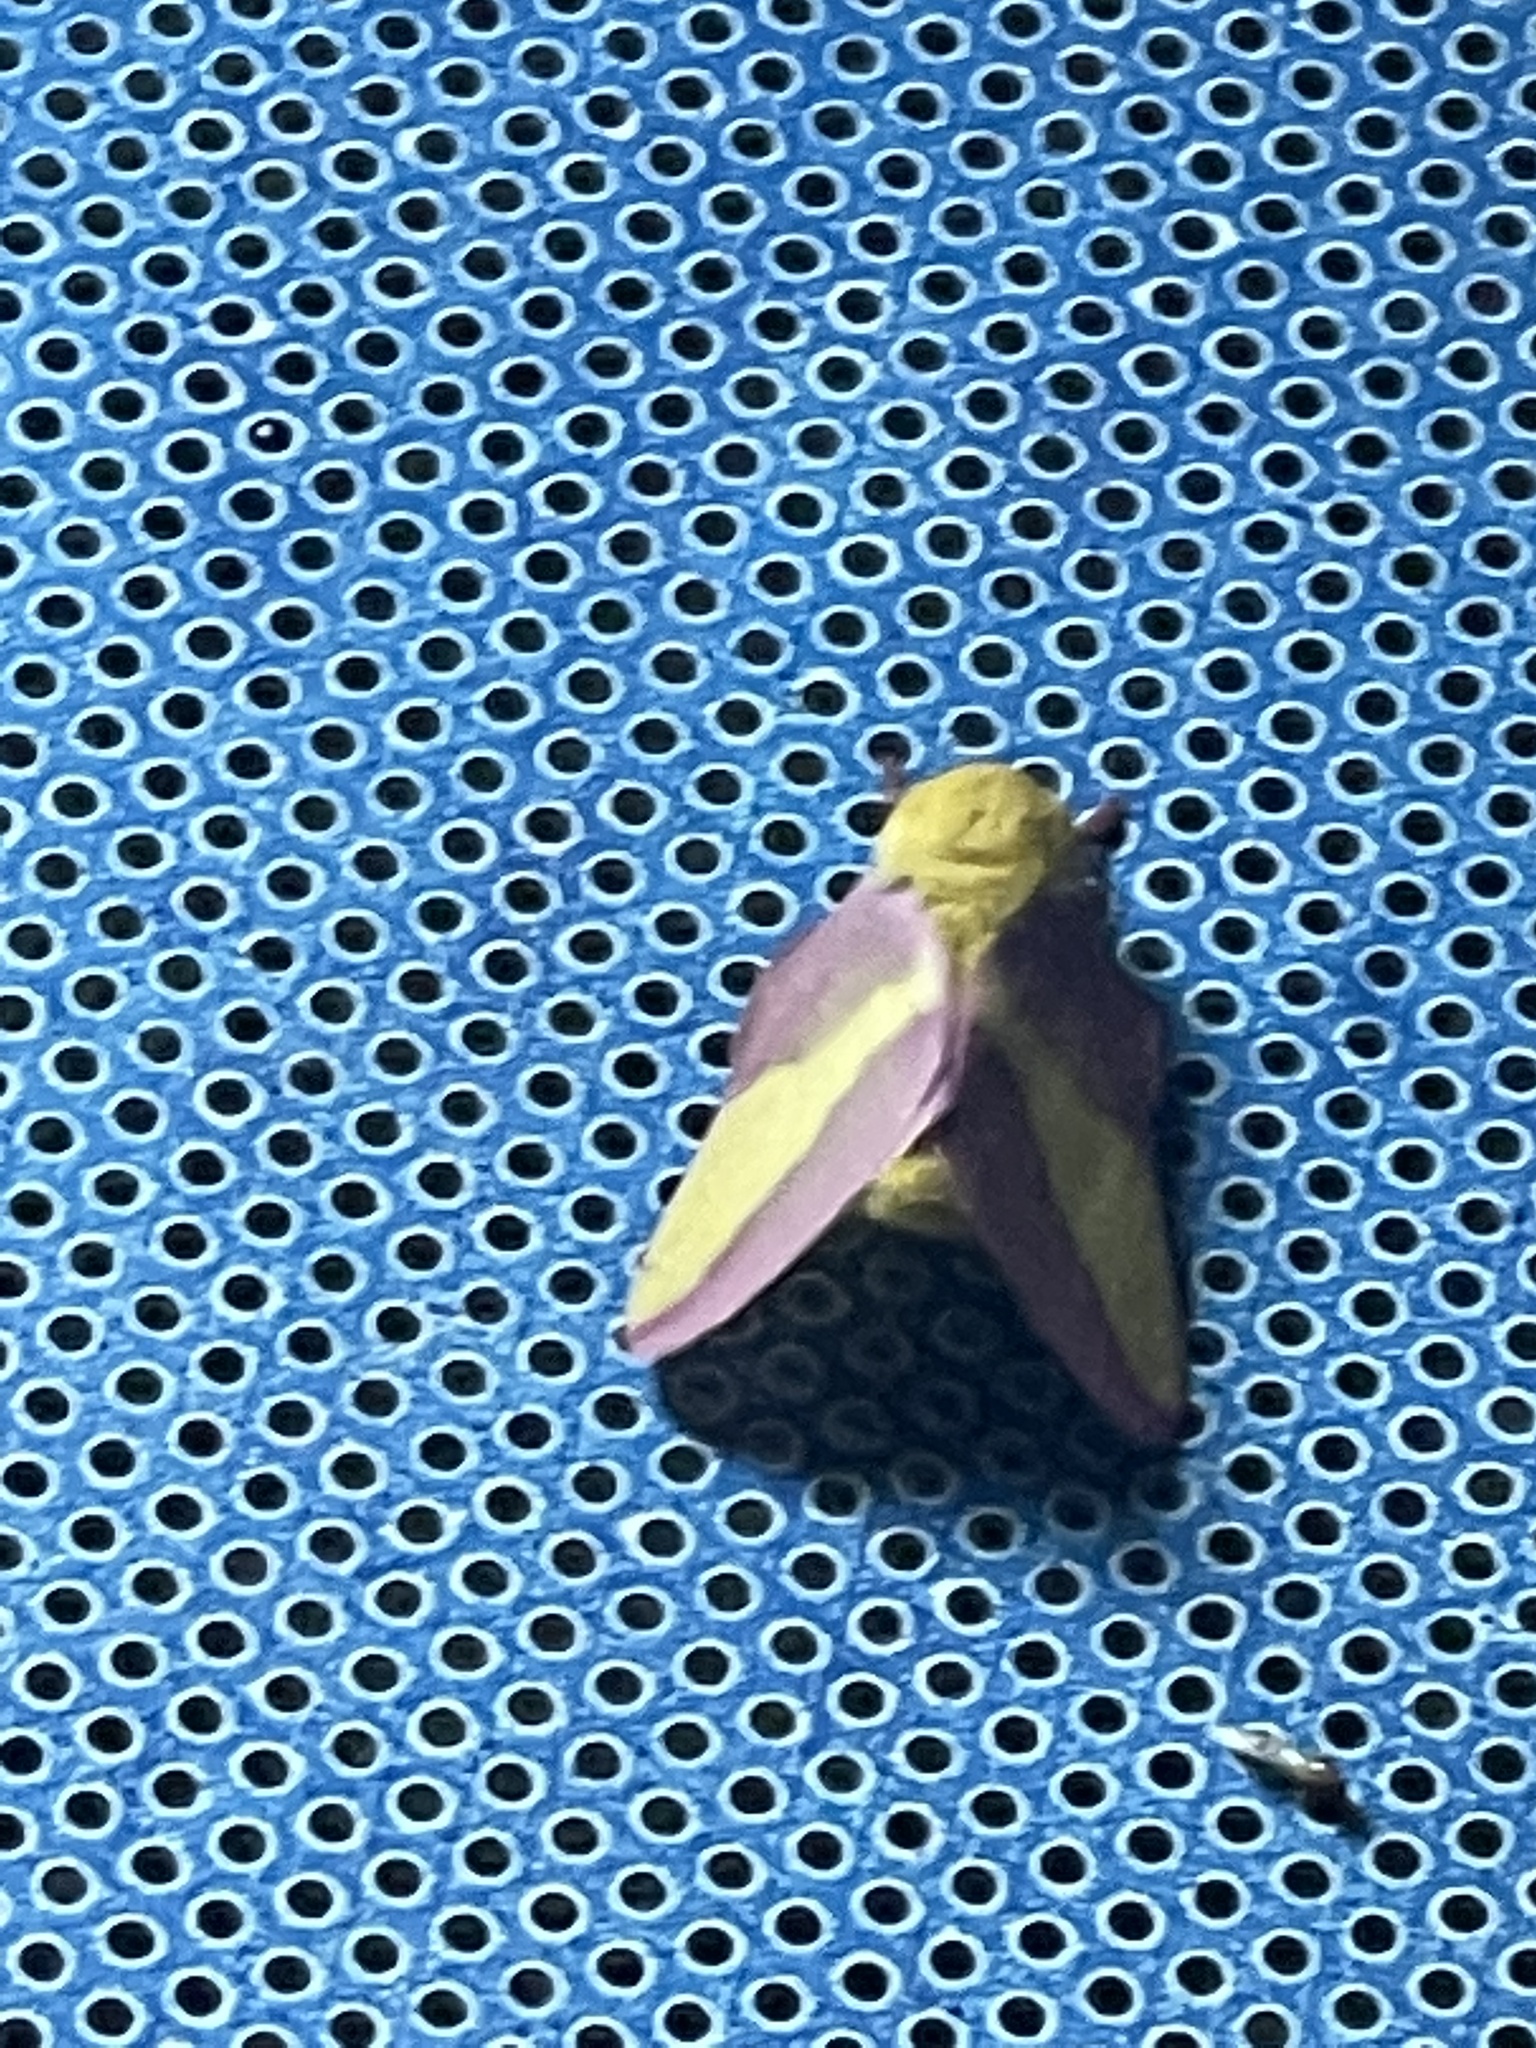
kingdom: Animalia
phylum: Arthropoda
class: Insecta
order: Lepidoptera
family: Saturniidae
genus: Dryocampa
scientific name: Dryocampa rubicunda
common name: Rosy maple moth
